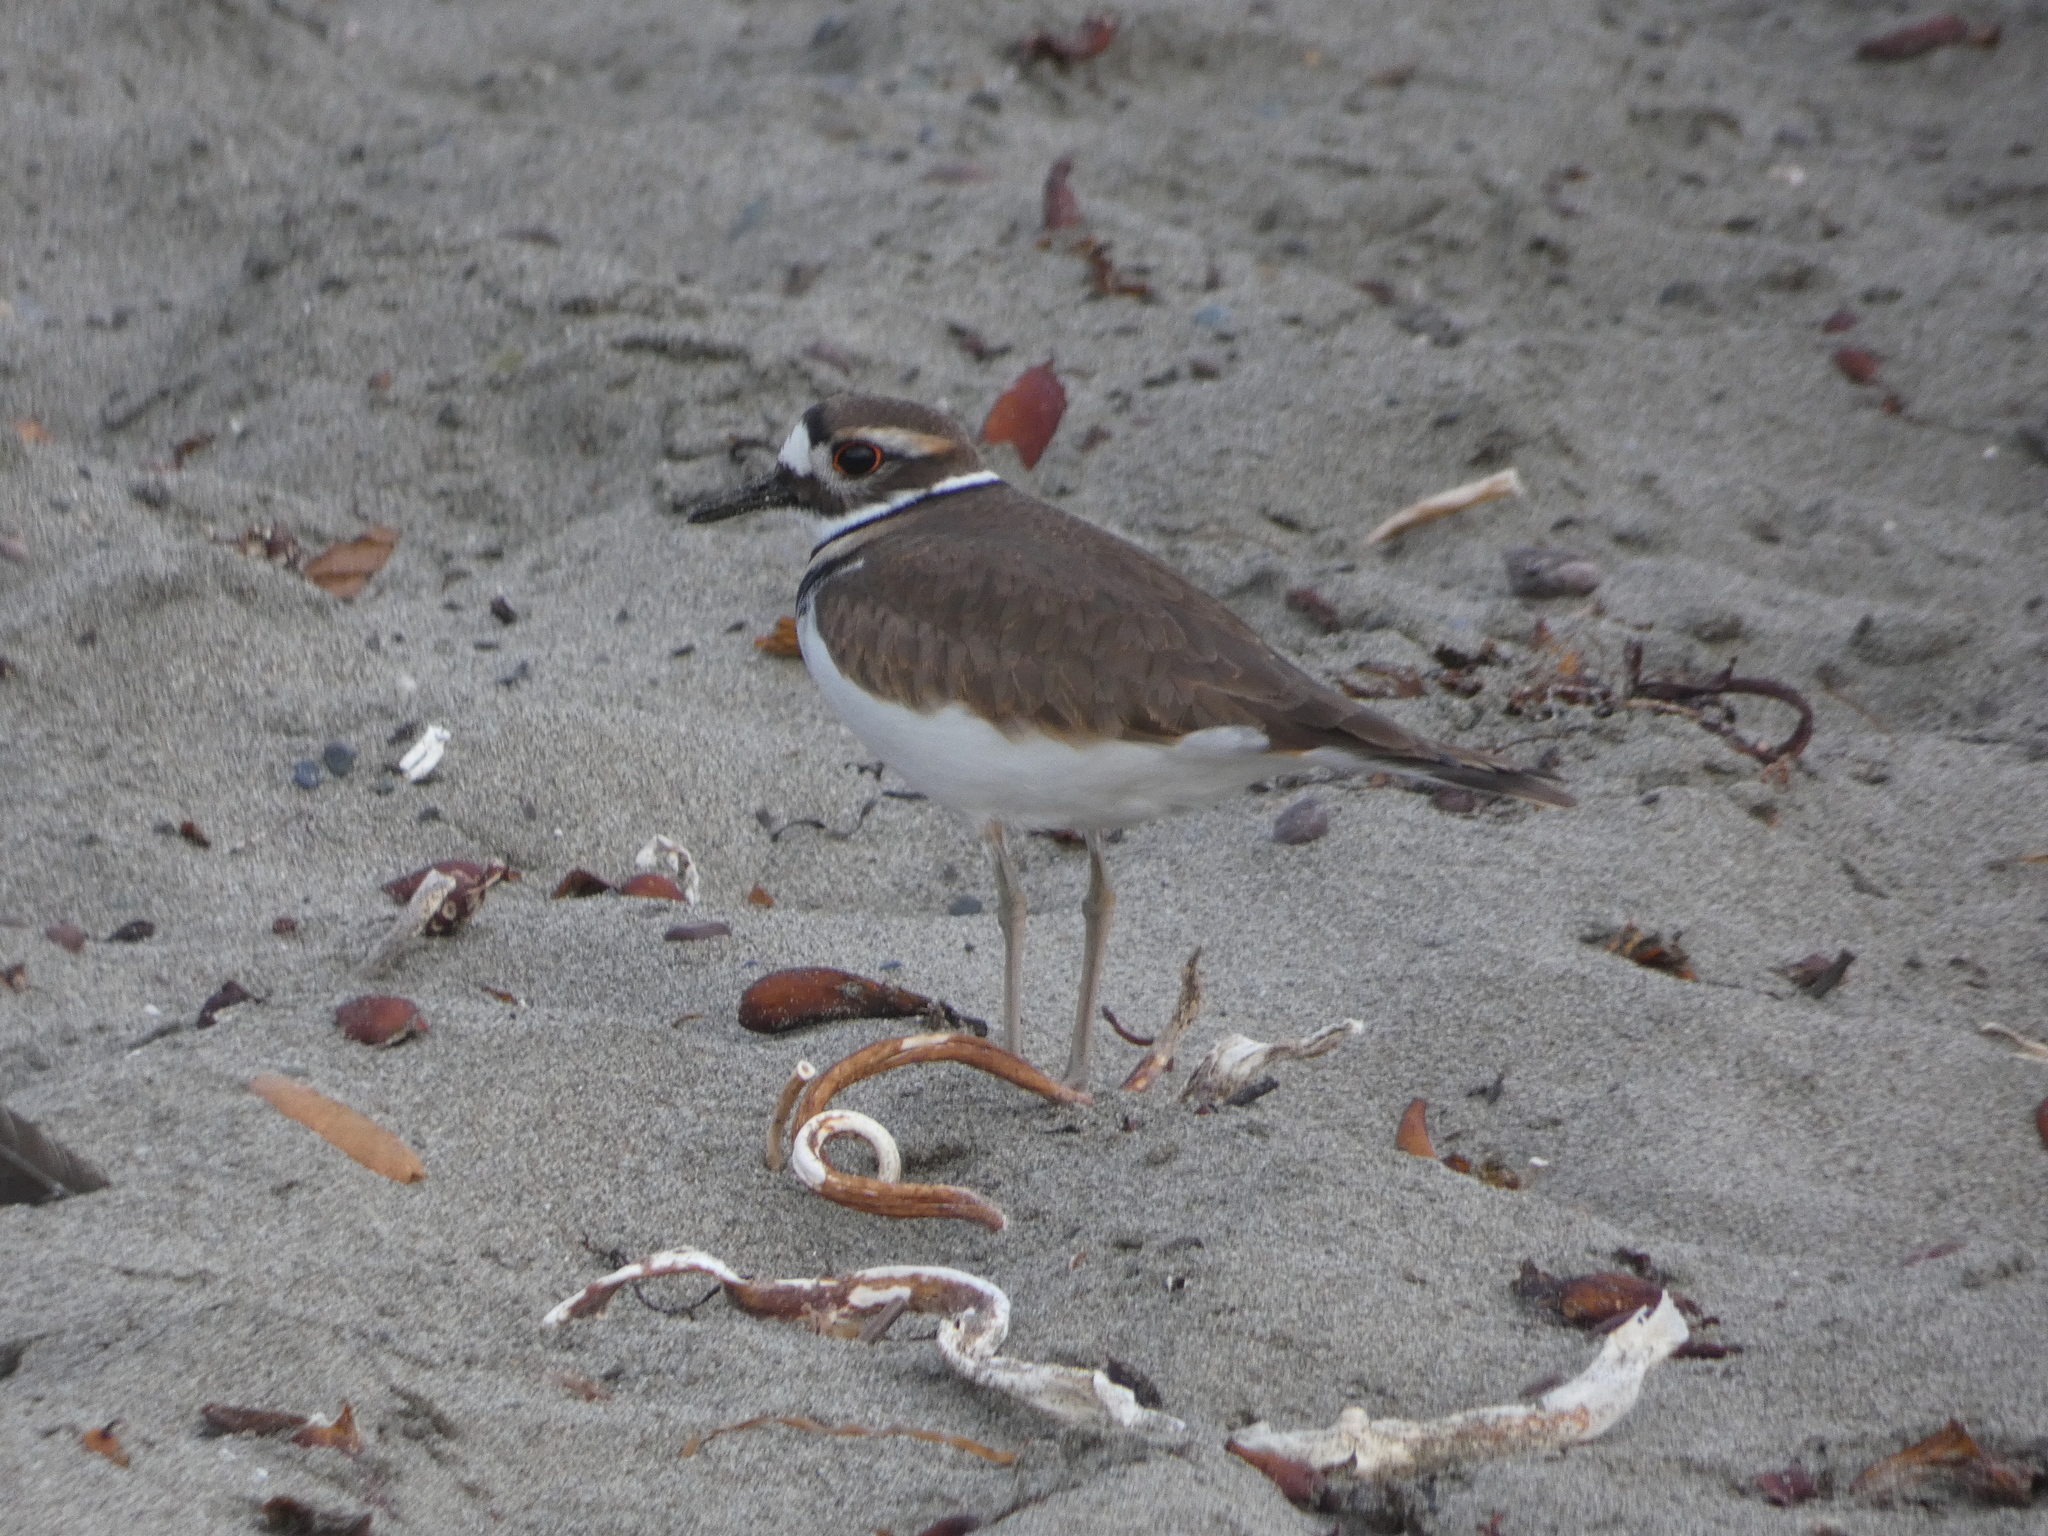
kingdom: Animalia
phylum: Chordata
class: Aves
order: Charadriiformes
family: Charadriidae
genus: Charadrius
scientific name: Charadrius vociferus
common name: Killdeer
